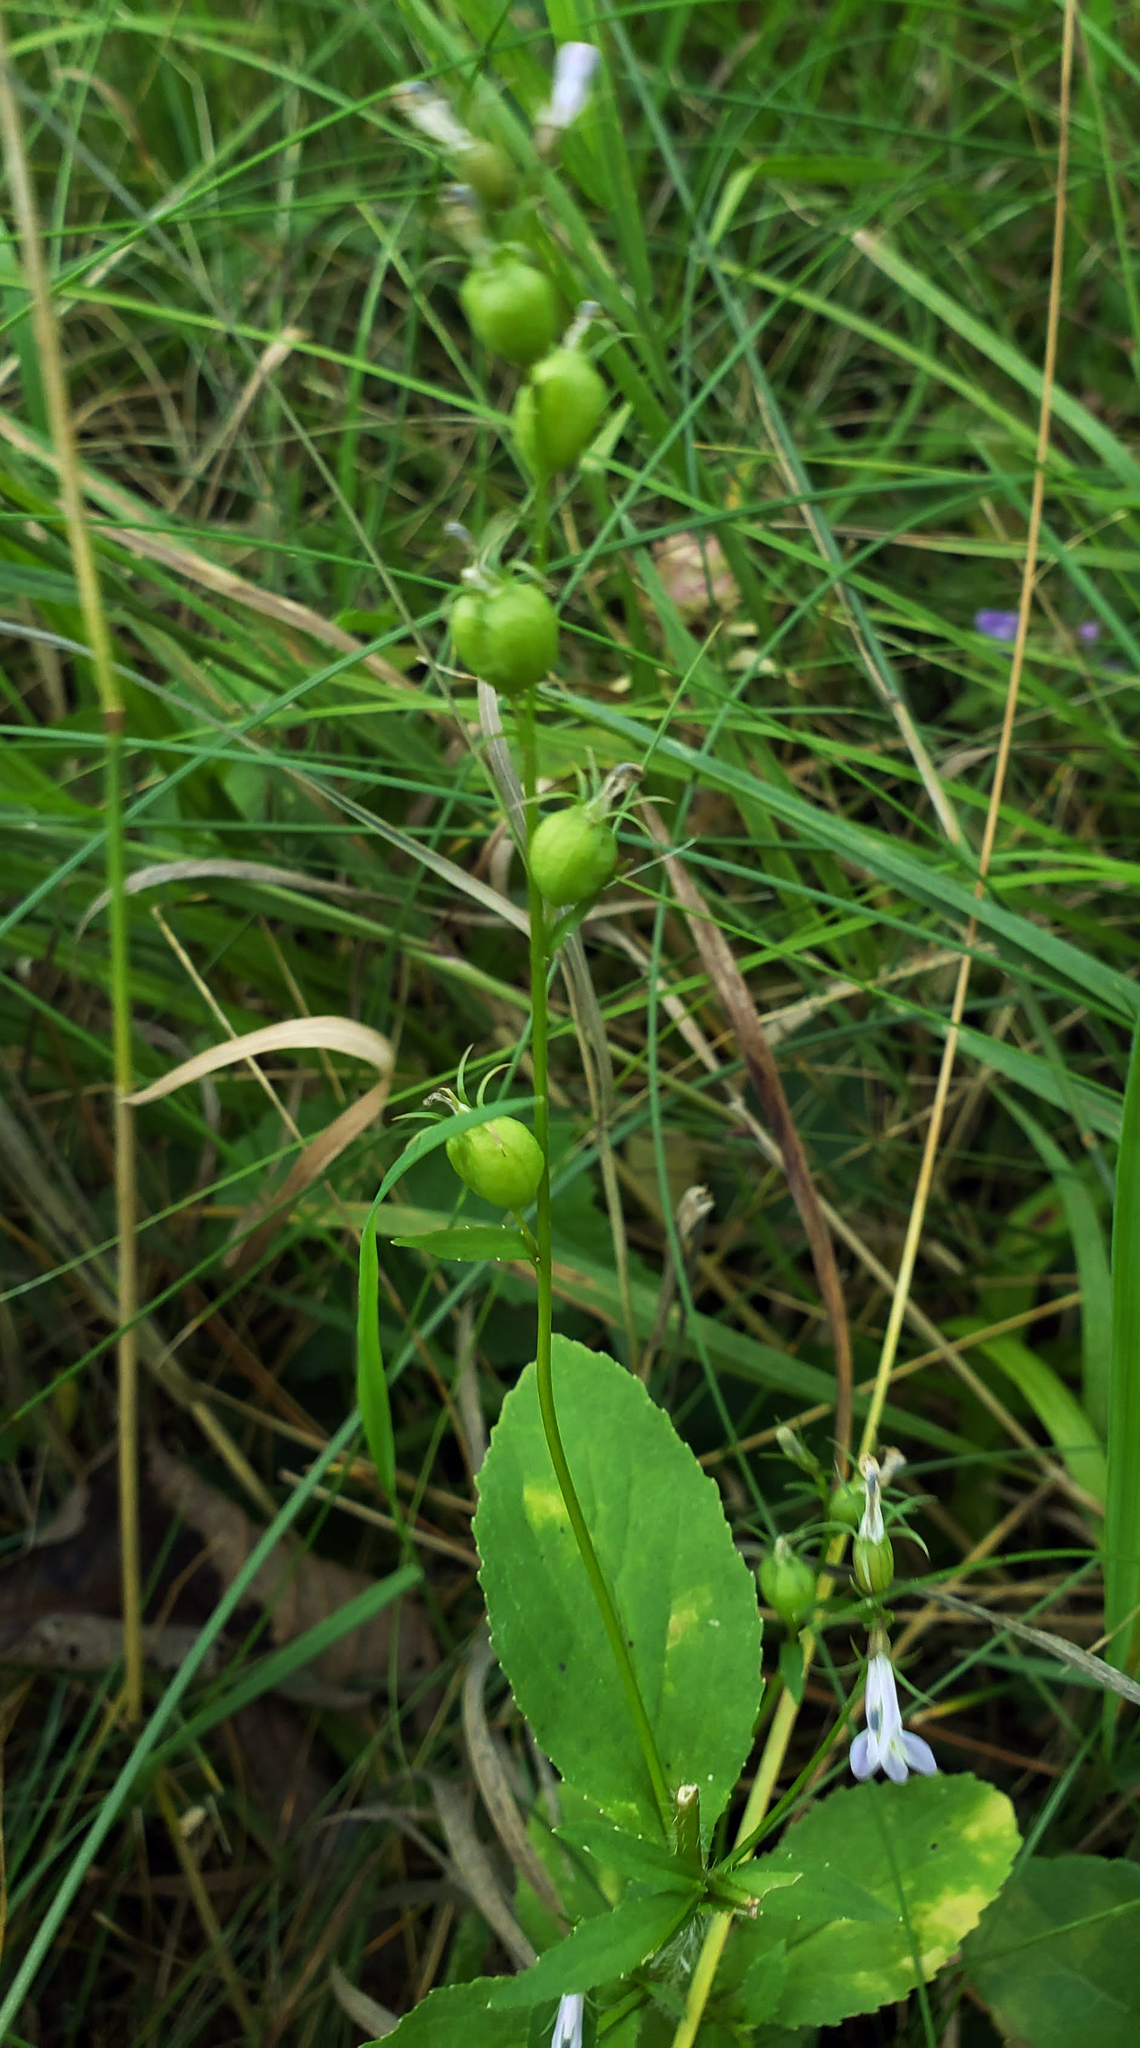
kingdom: Plantae
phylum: Tracheophyta
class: Magnoliopsida
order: Asterales
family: Campanulaceae
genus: Lobelia
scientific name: Lobelia inflata
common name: Indian tobacco
